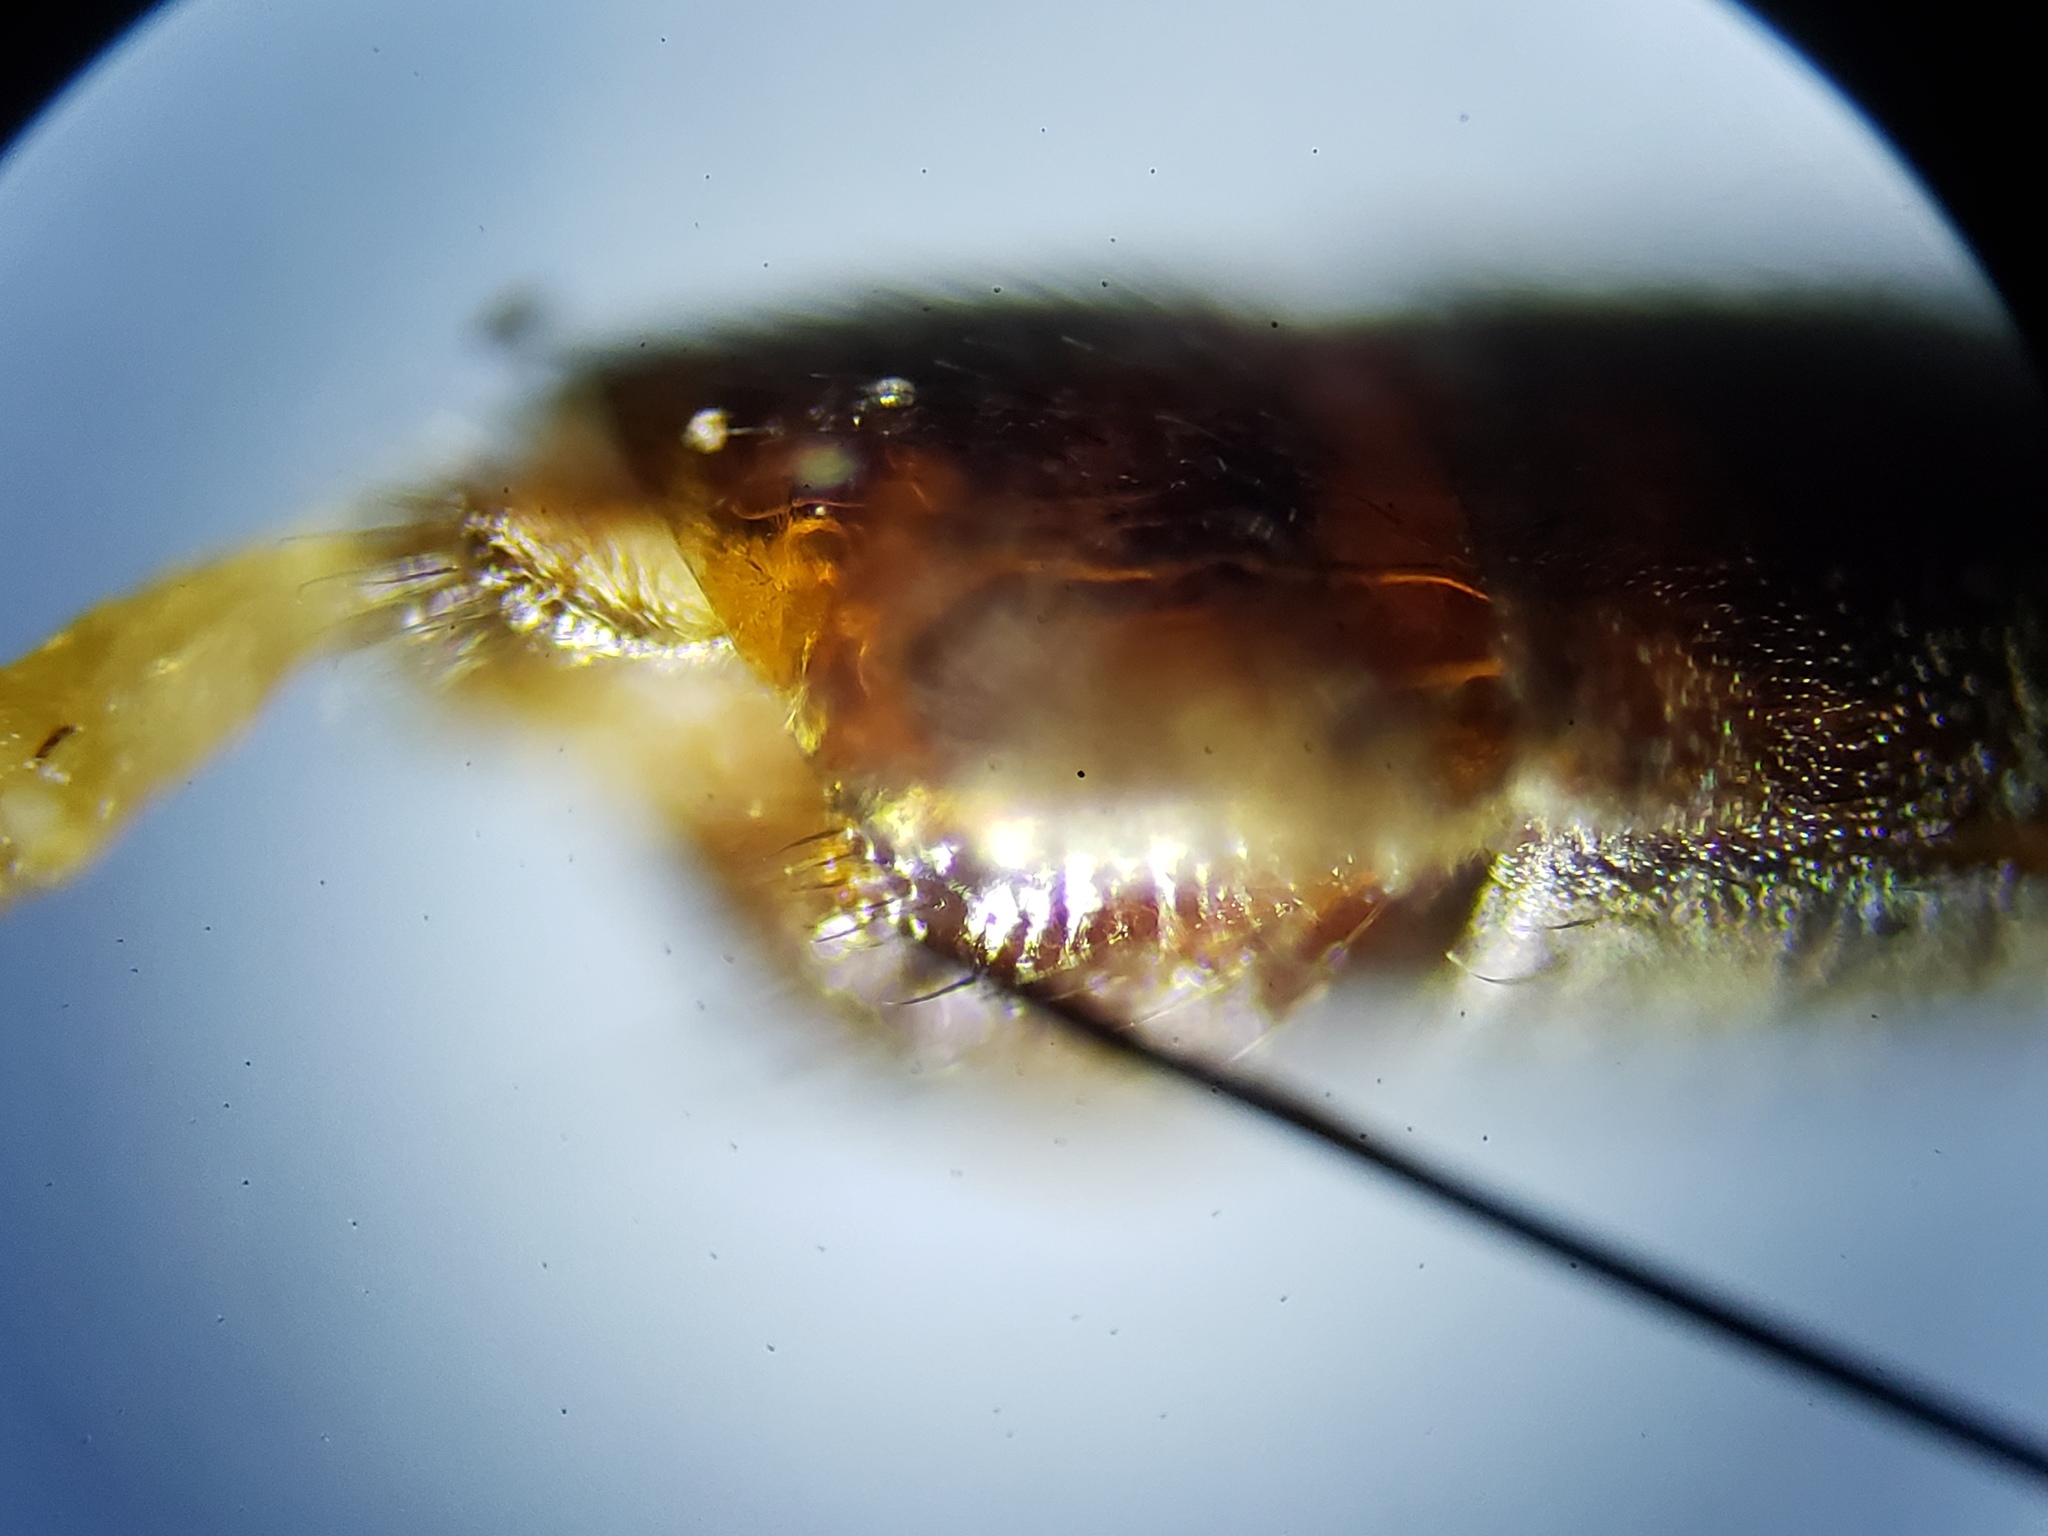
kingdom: Animalia
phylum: Arthropoda
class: Insecta
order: Diptera
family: Asilidae
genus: Leptogaster
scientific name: Leptogaster obscuripennis
